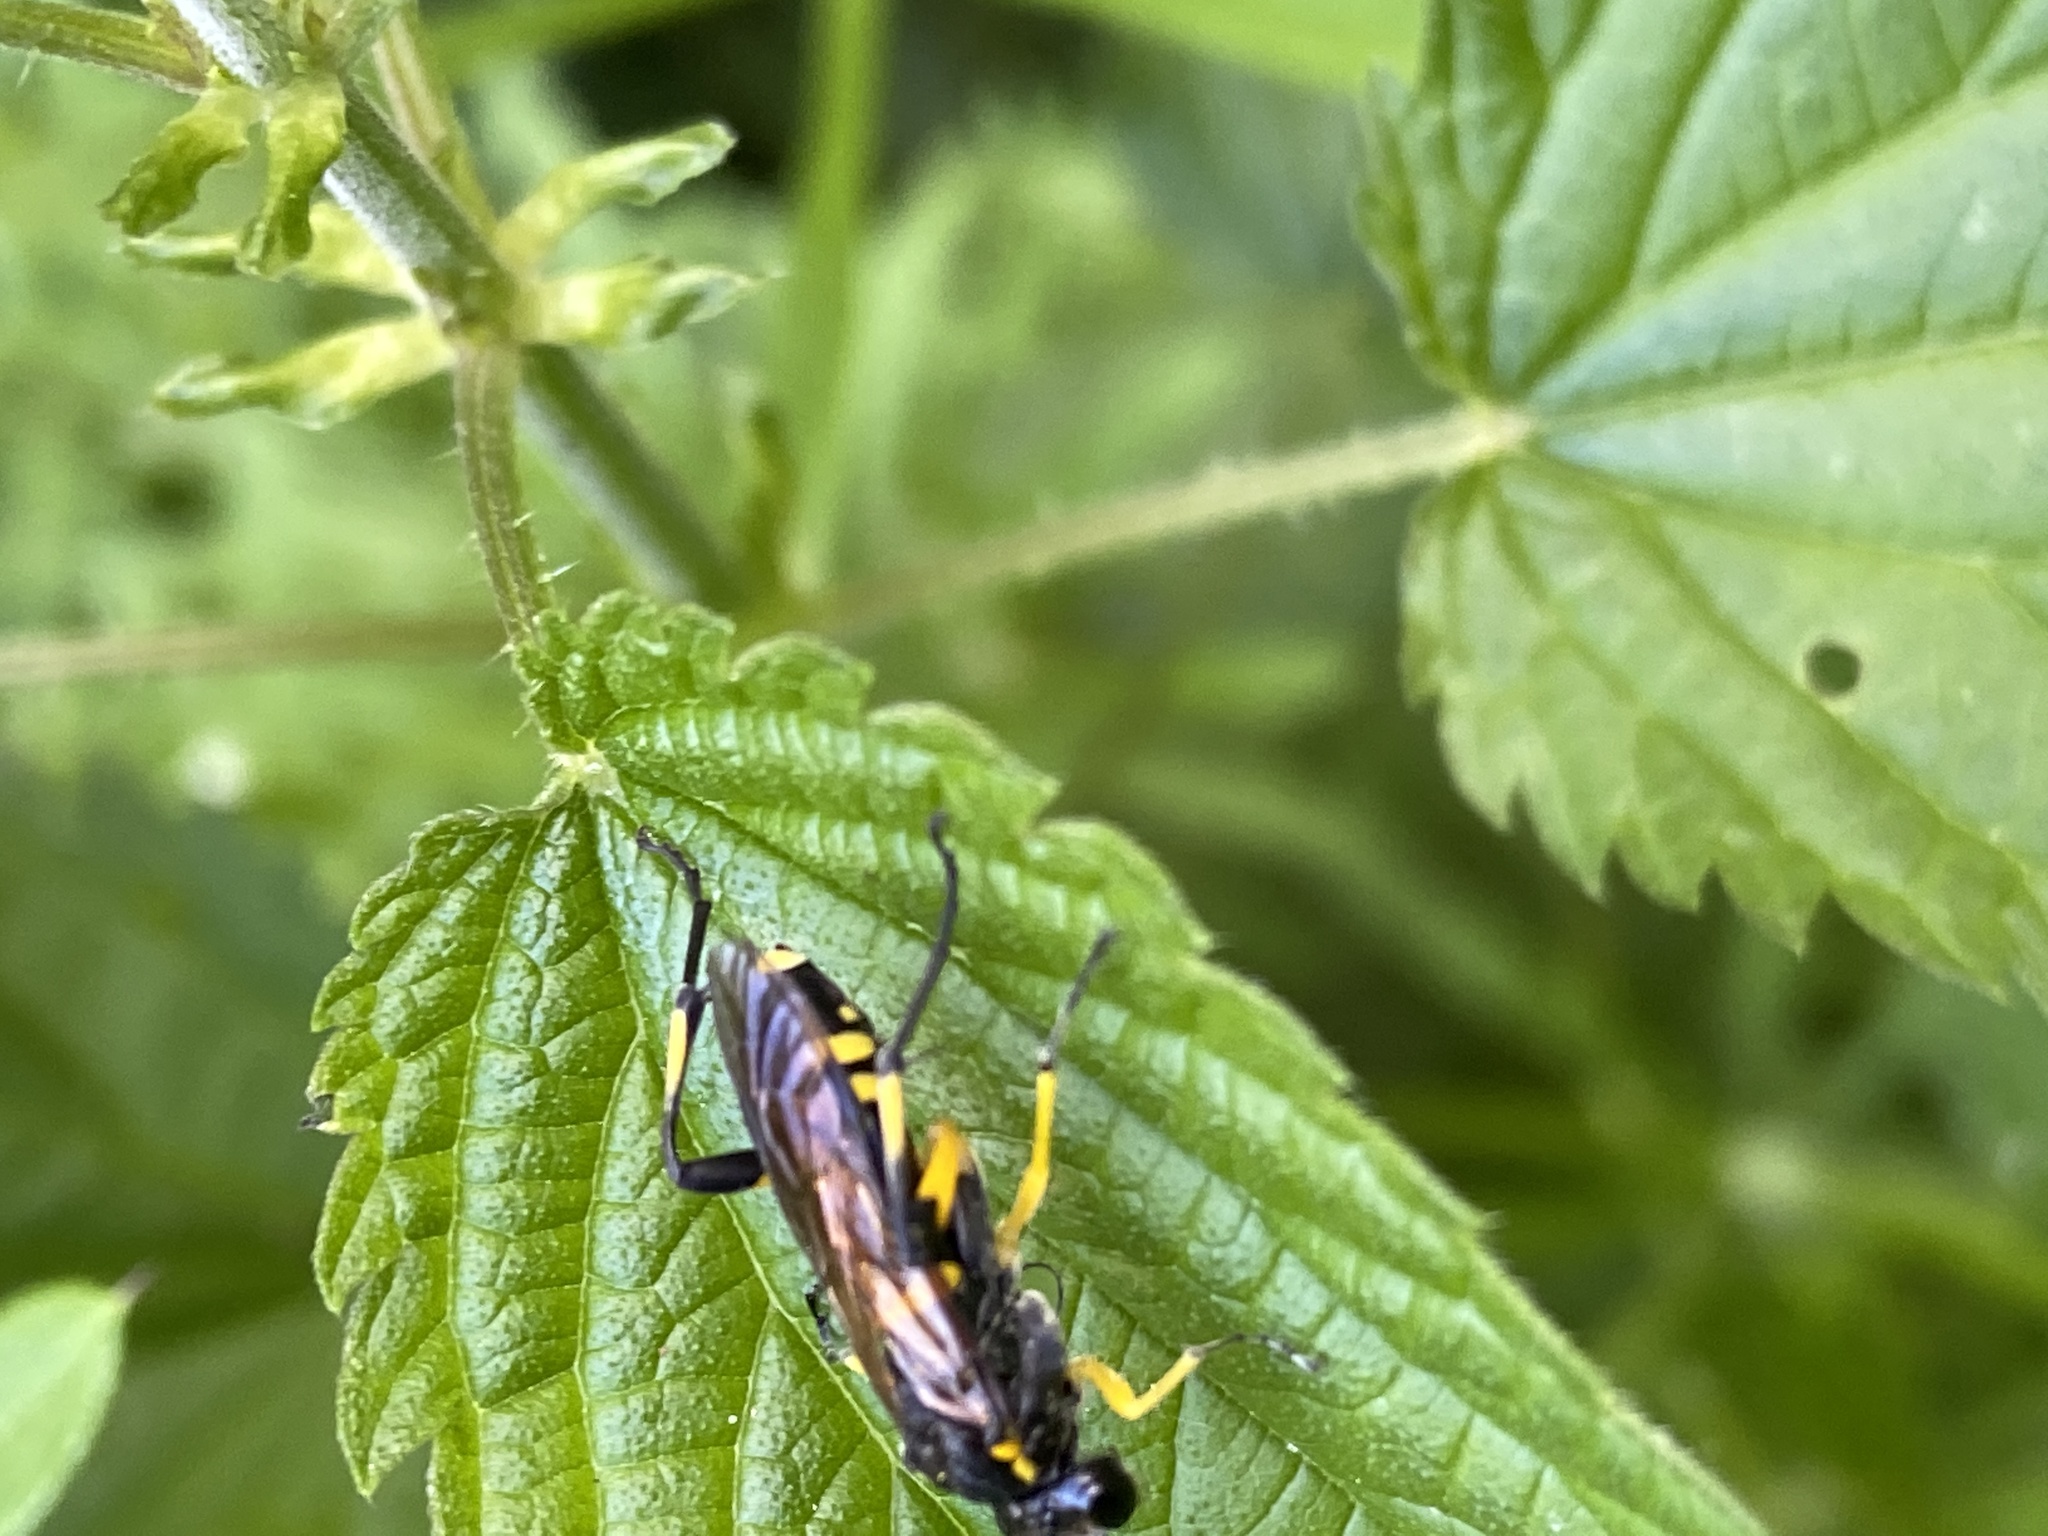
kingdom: Animalia
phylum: Arthropoda
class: Insecta
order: Hymenoptera
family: Tenthredinidae
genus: Macrophya
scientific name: Macrophya montana
